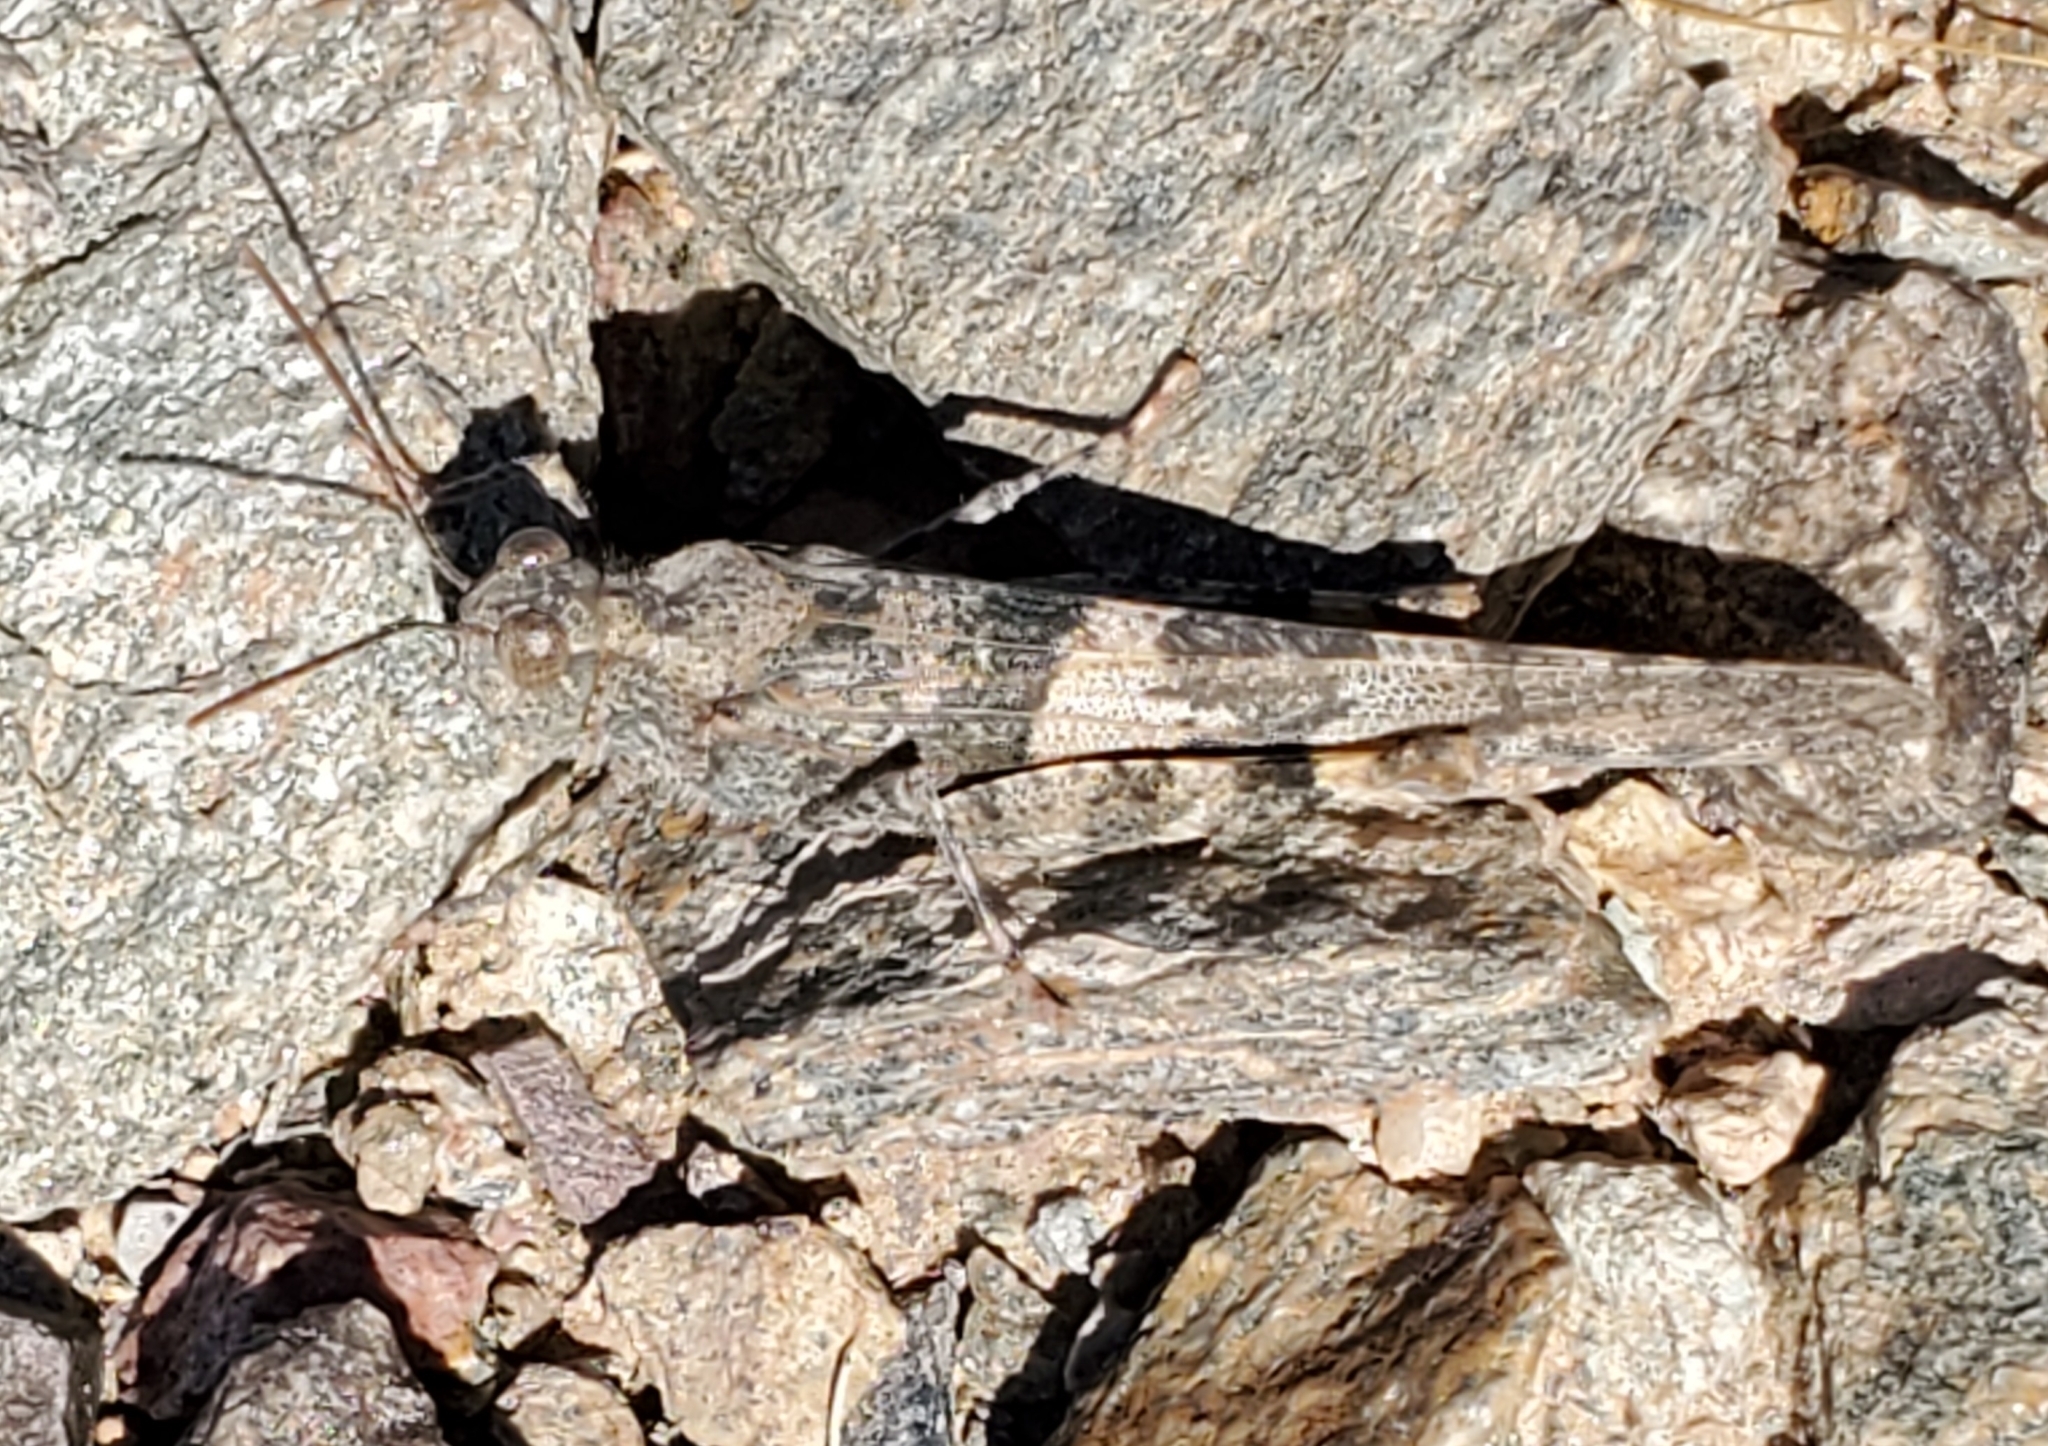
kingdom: Animalia
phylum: Arthropoda
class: Insecta
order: Orthoptera
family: Acrididae
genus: Trimerotropis
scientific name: Trimerotropis pallidipennis
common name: Pallid-winged grasshopper
